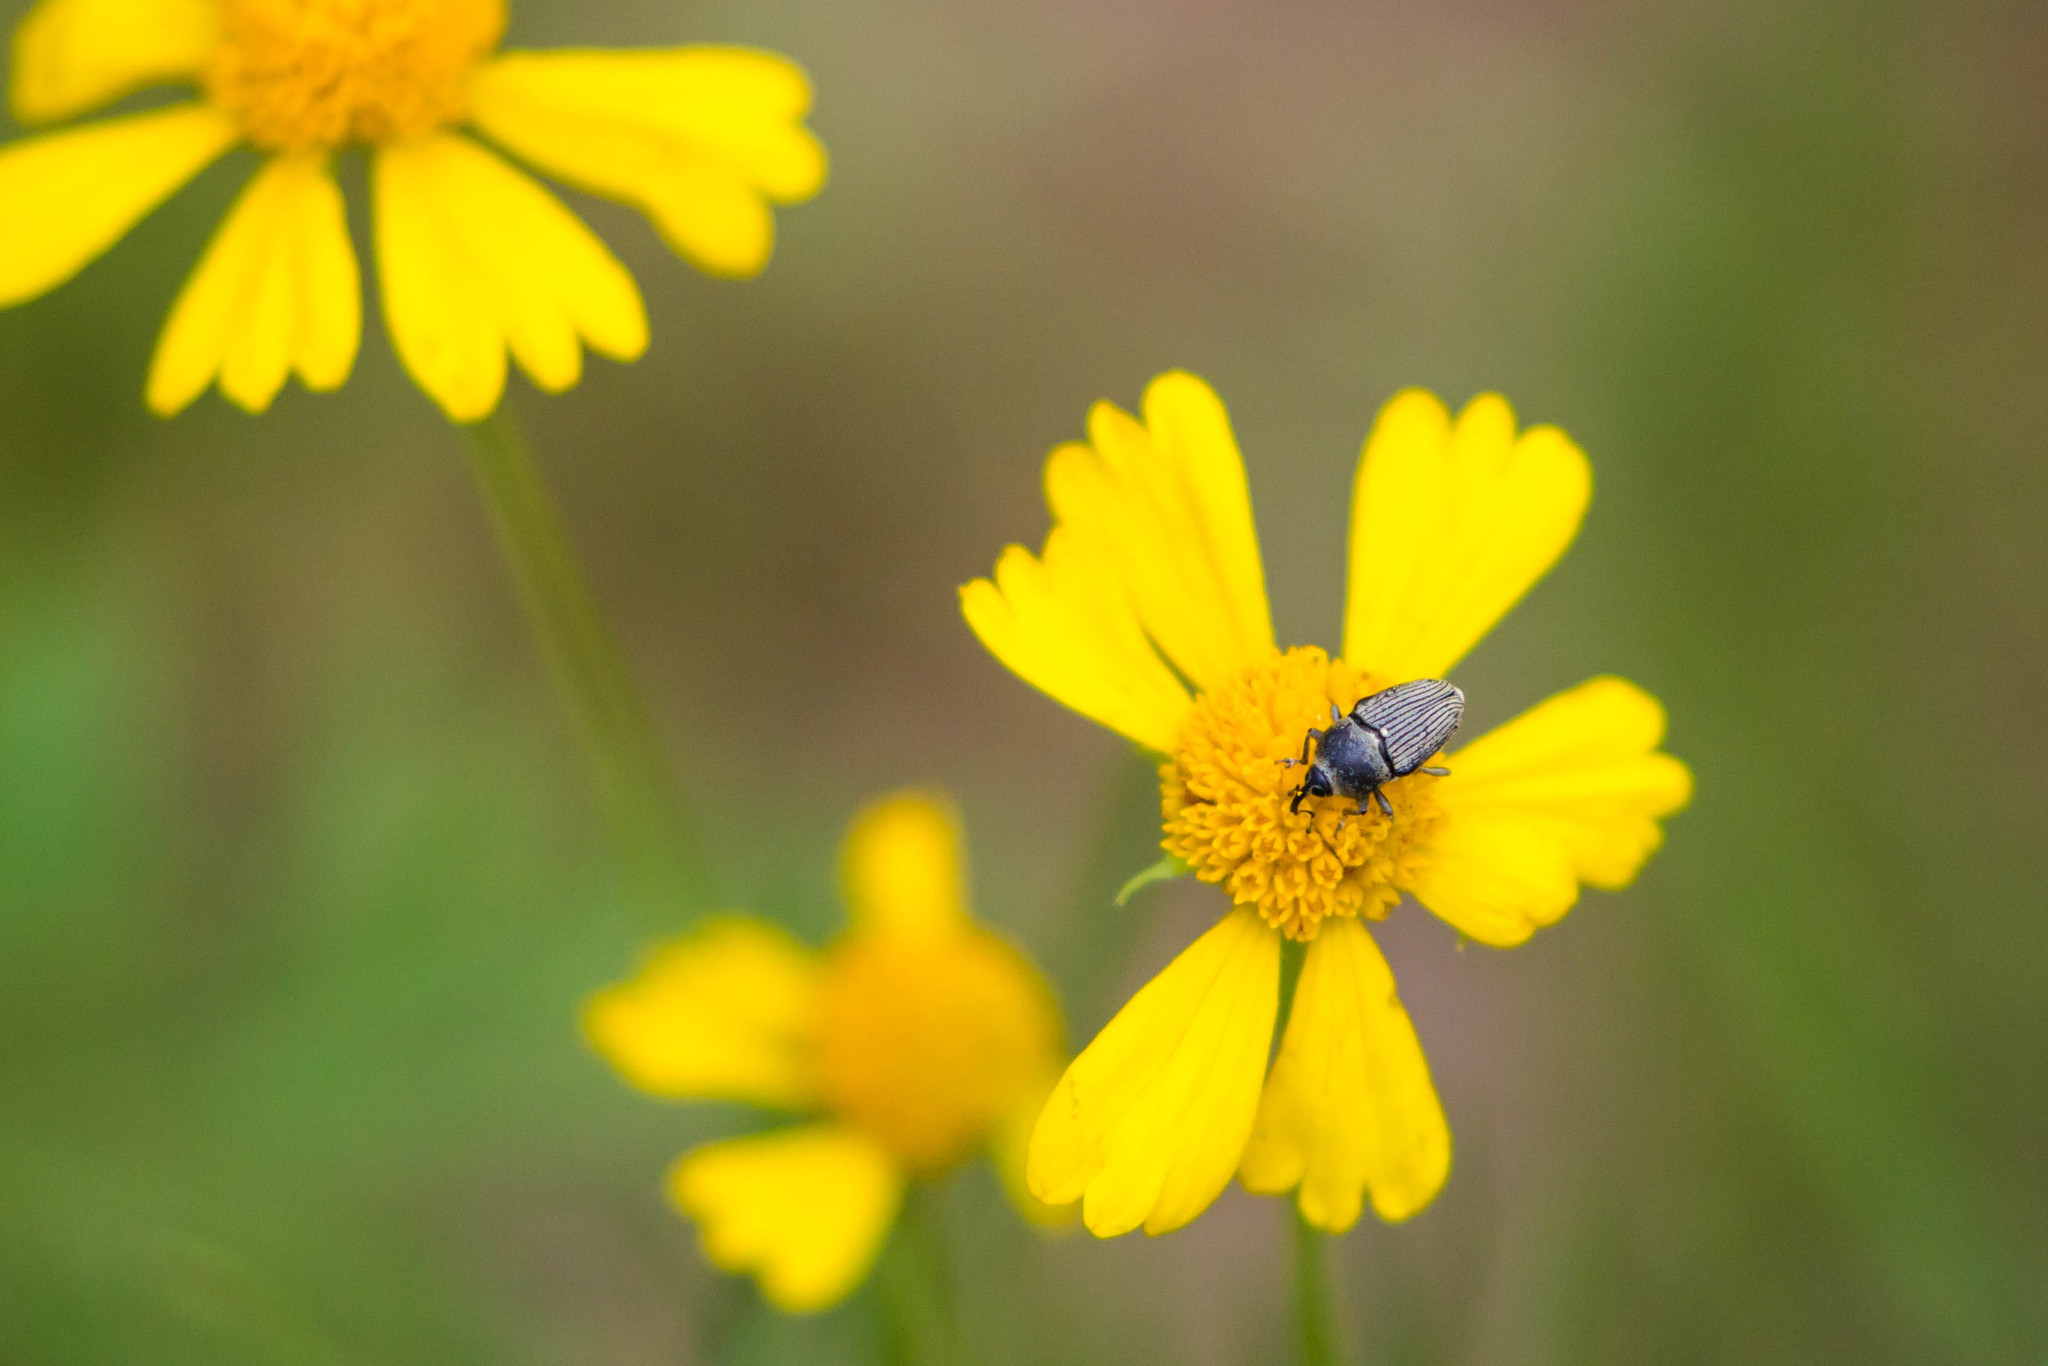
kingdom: Animalia
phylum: Arthropoda
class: Insecta
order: Coleoptera
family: Curculionidae
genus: Odontocorynus
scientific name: Odontocorynus salebrosus
